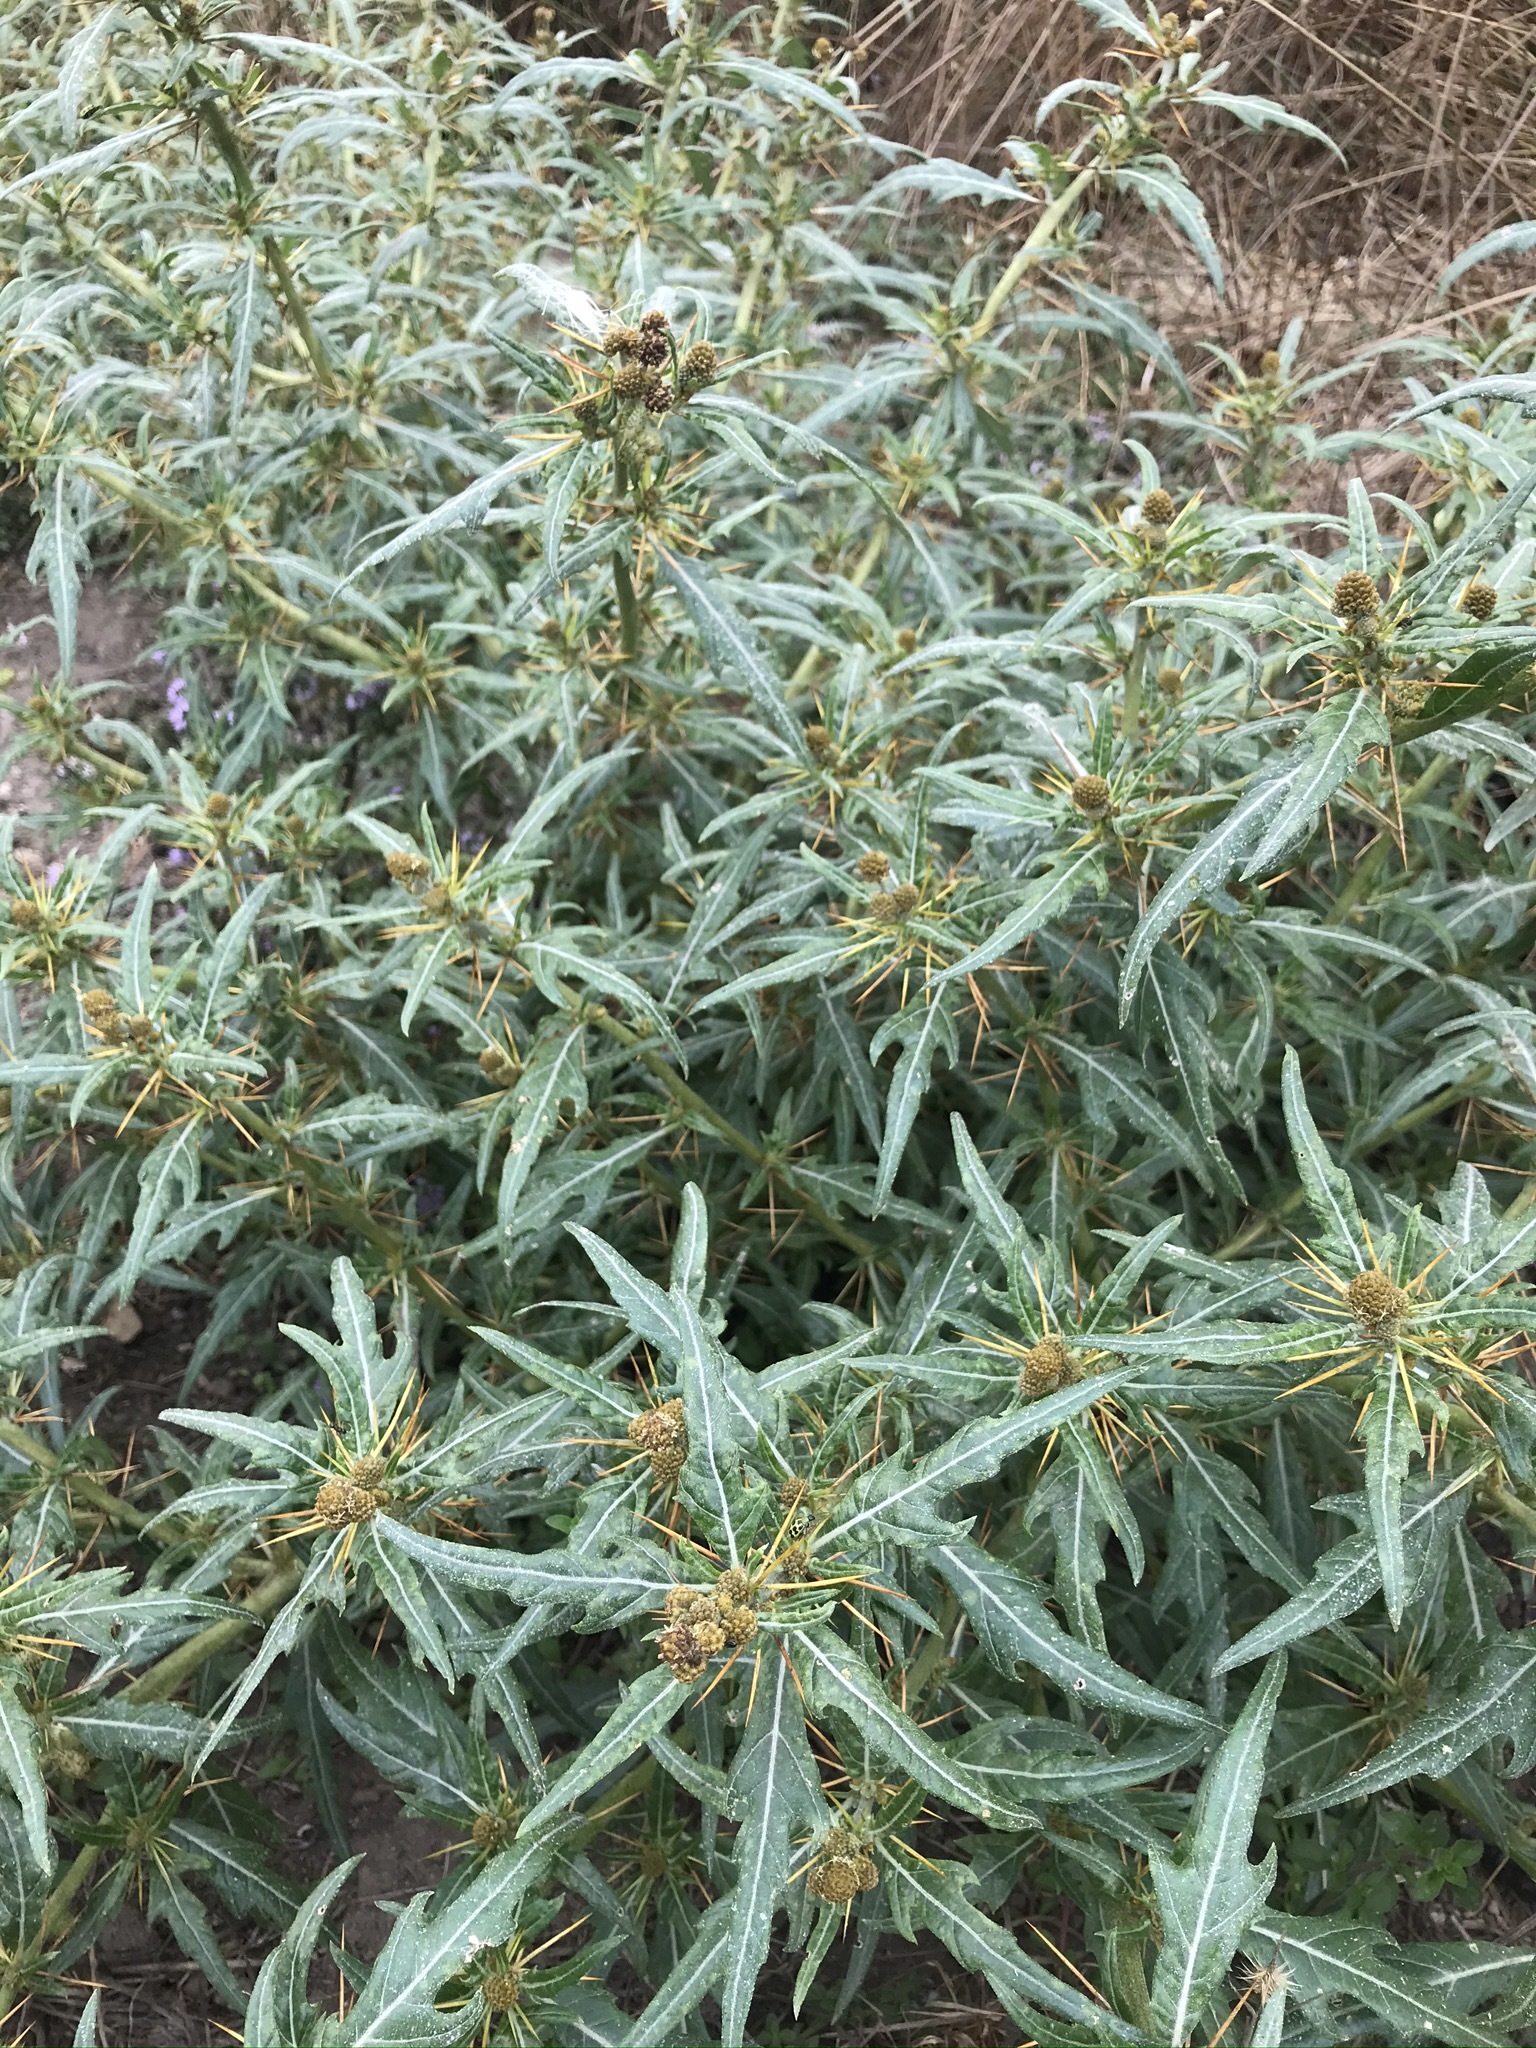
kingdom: Plantae
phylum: Tracheophyta
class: Magnoliopsida
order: Asterales
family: Asteraceae
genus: Xanthium
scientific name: Xanthium spinosum
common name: Spiny cocklebur
